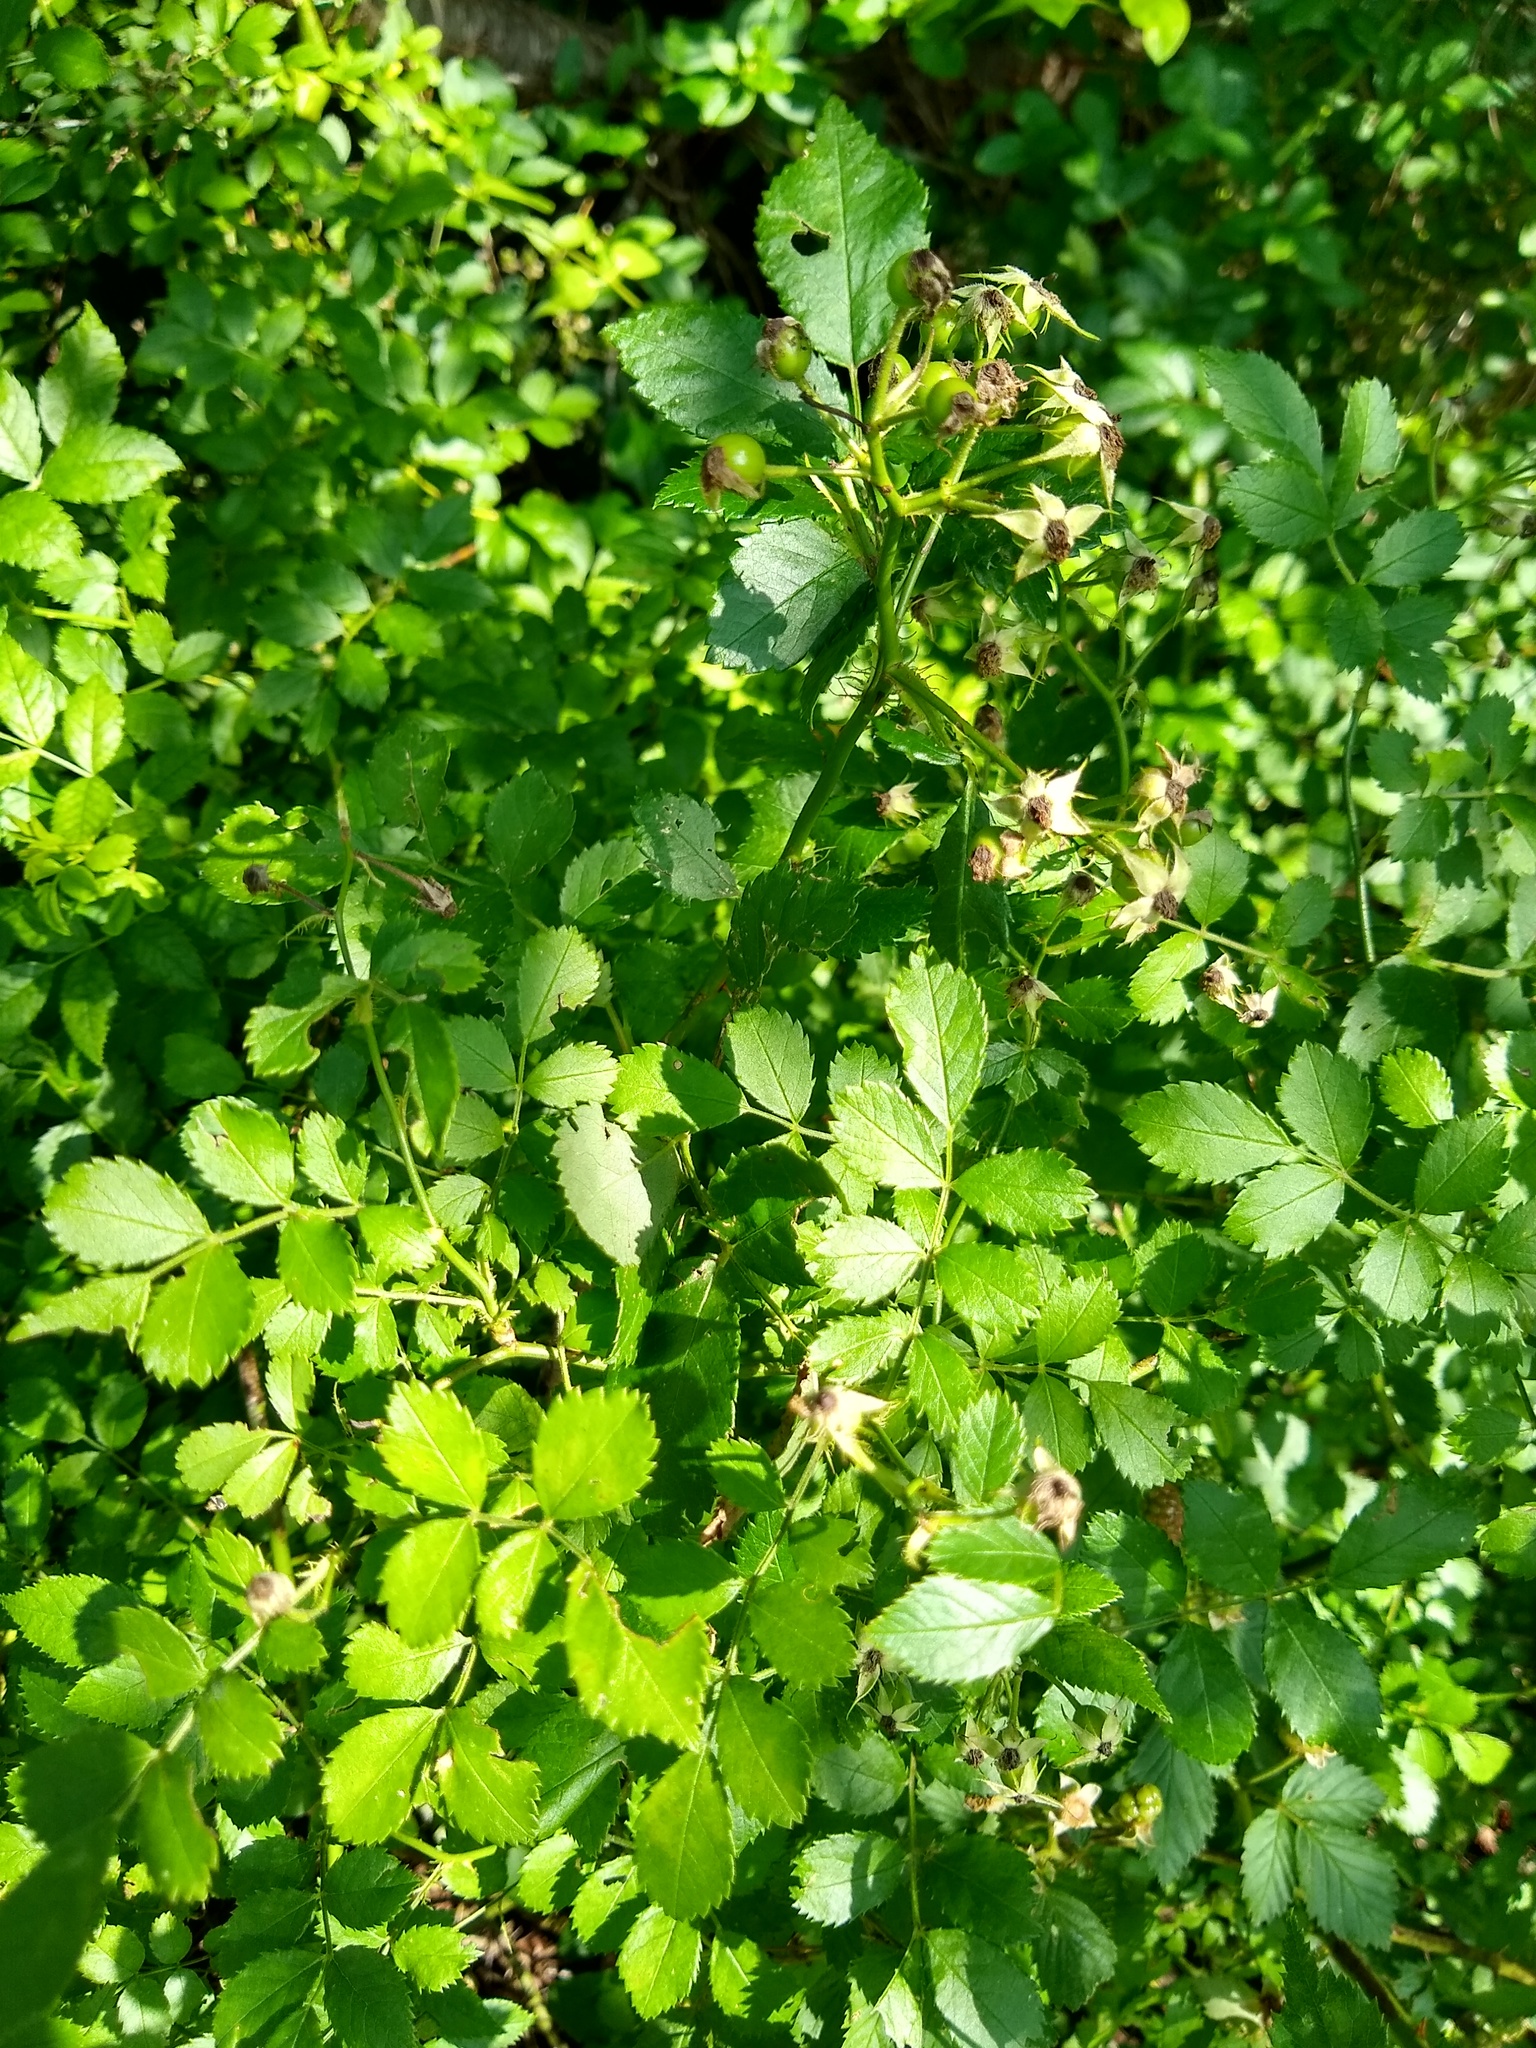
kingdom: Plantae
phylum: Tracheophyta
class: Magnoliopsida
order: Rosales
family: Rosaceae
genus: Rosa
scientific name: Rosa multiflora
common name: Multiflora rose
